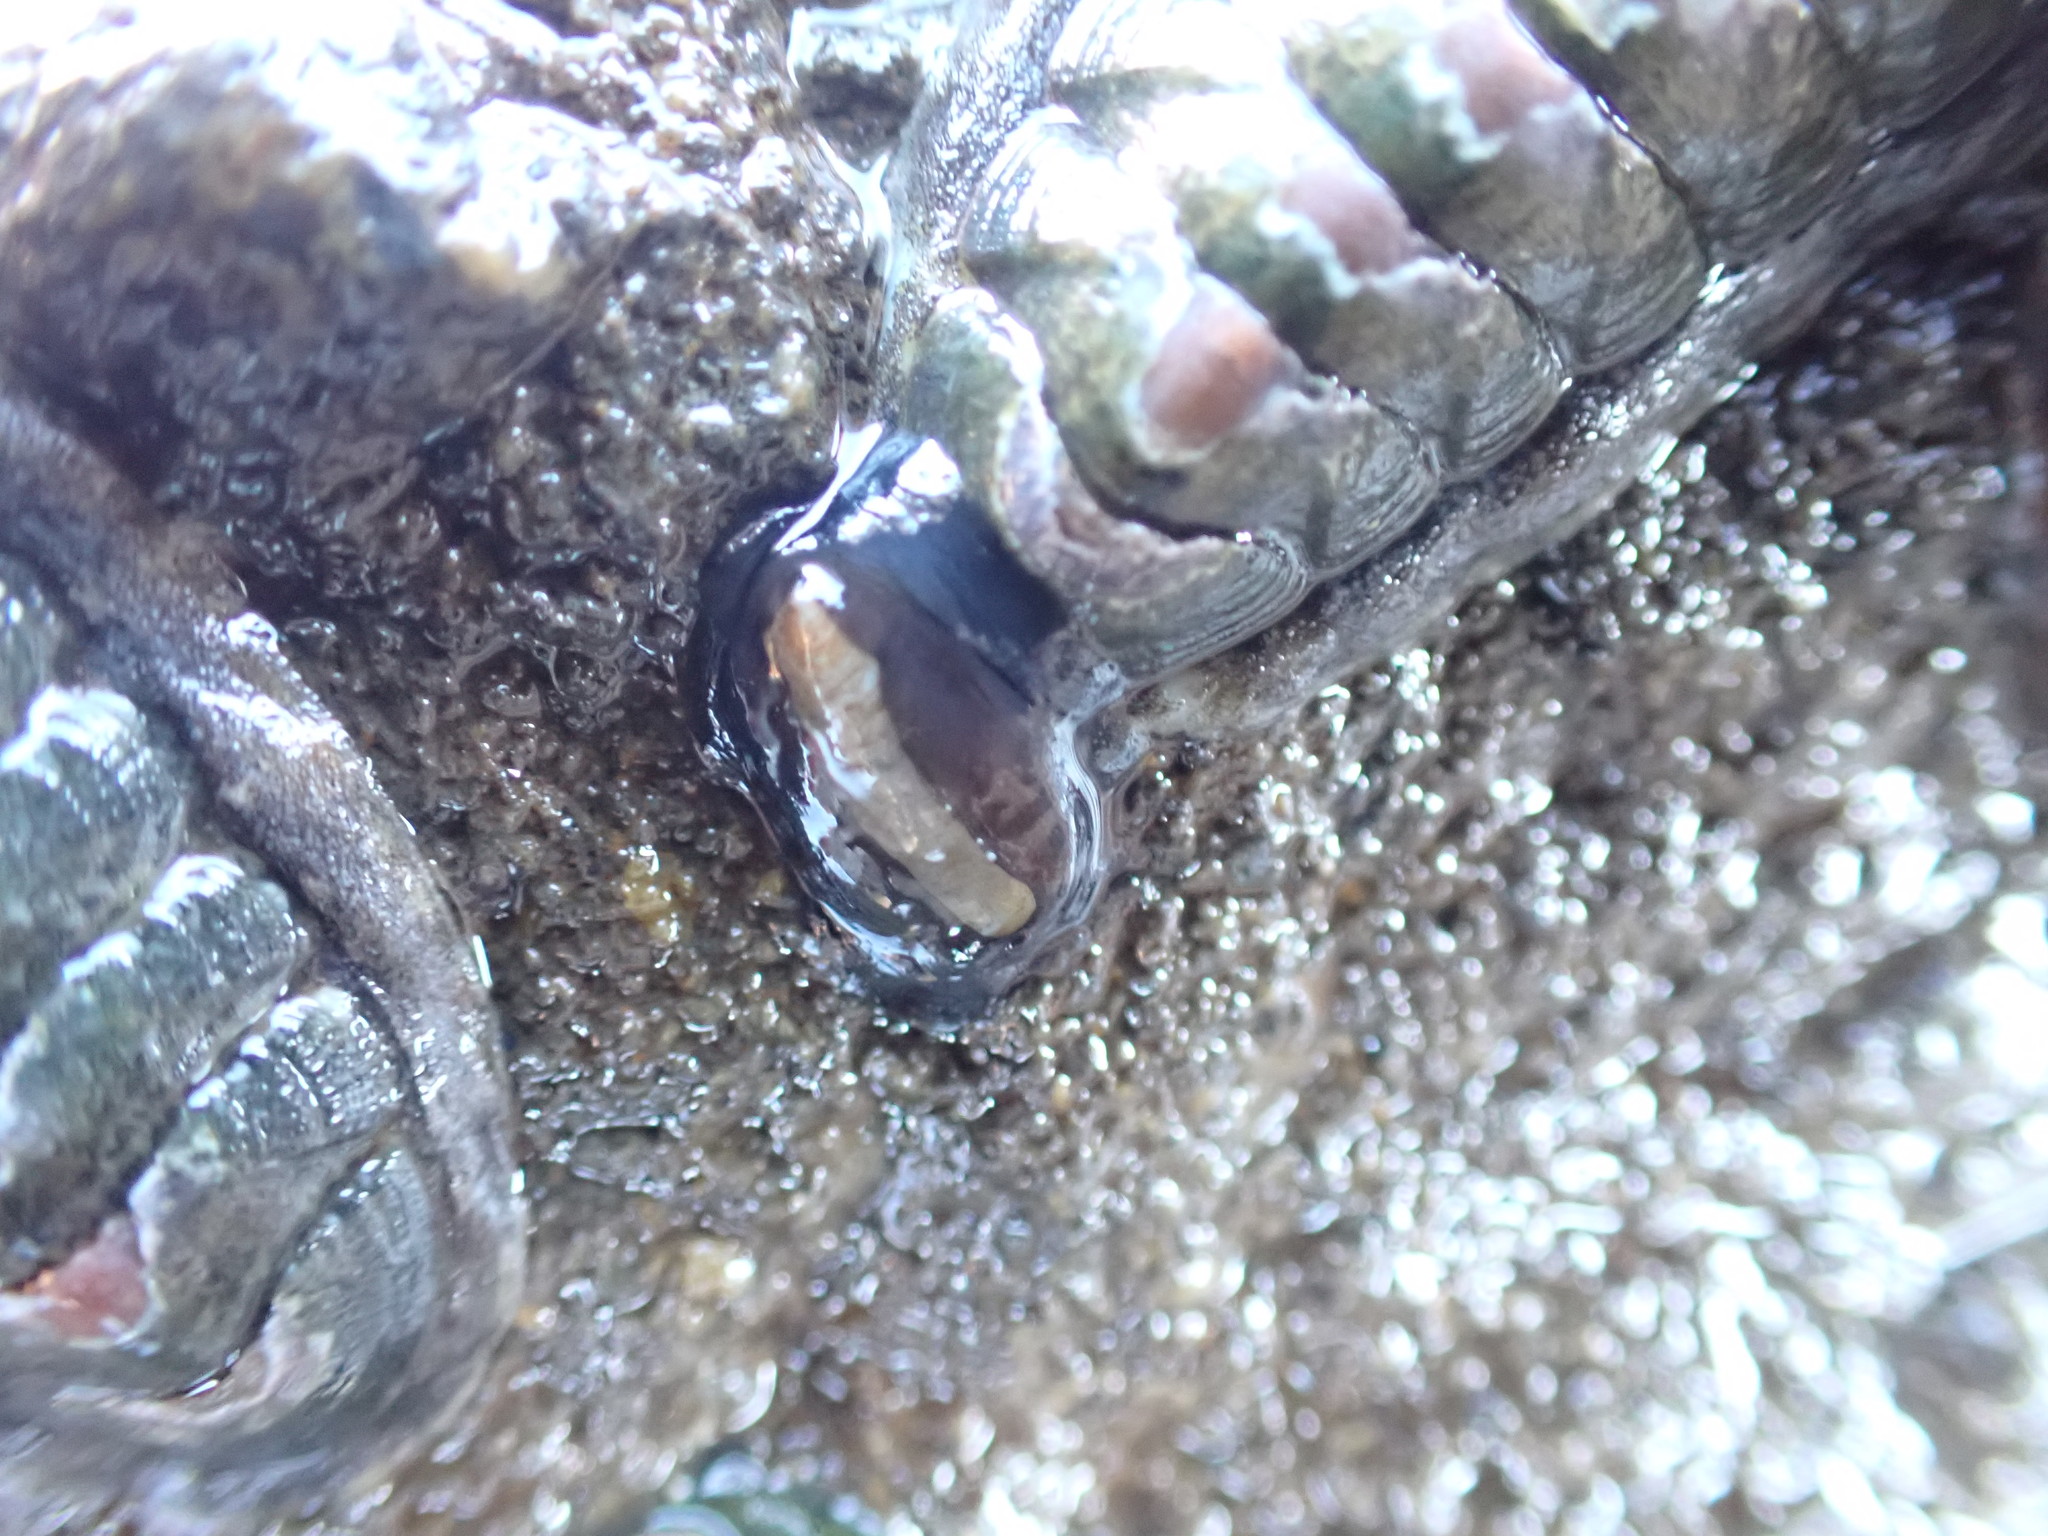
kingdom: Animalia
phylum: Mollusca
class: Gastropoda
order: Lepetellida
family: Fissurellidae
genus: Scutus
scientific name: Scutus breviculus
